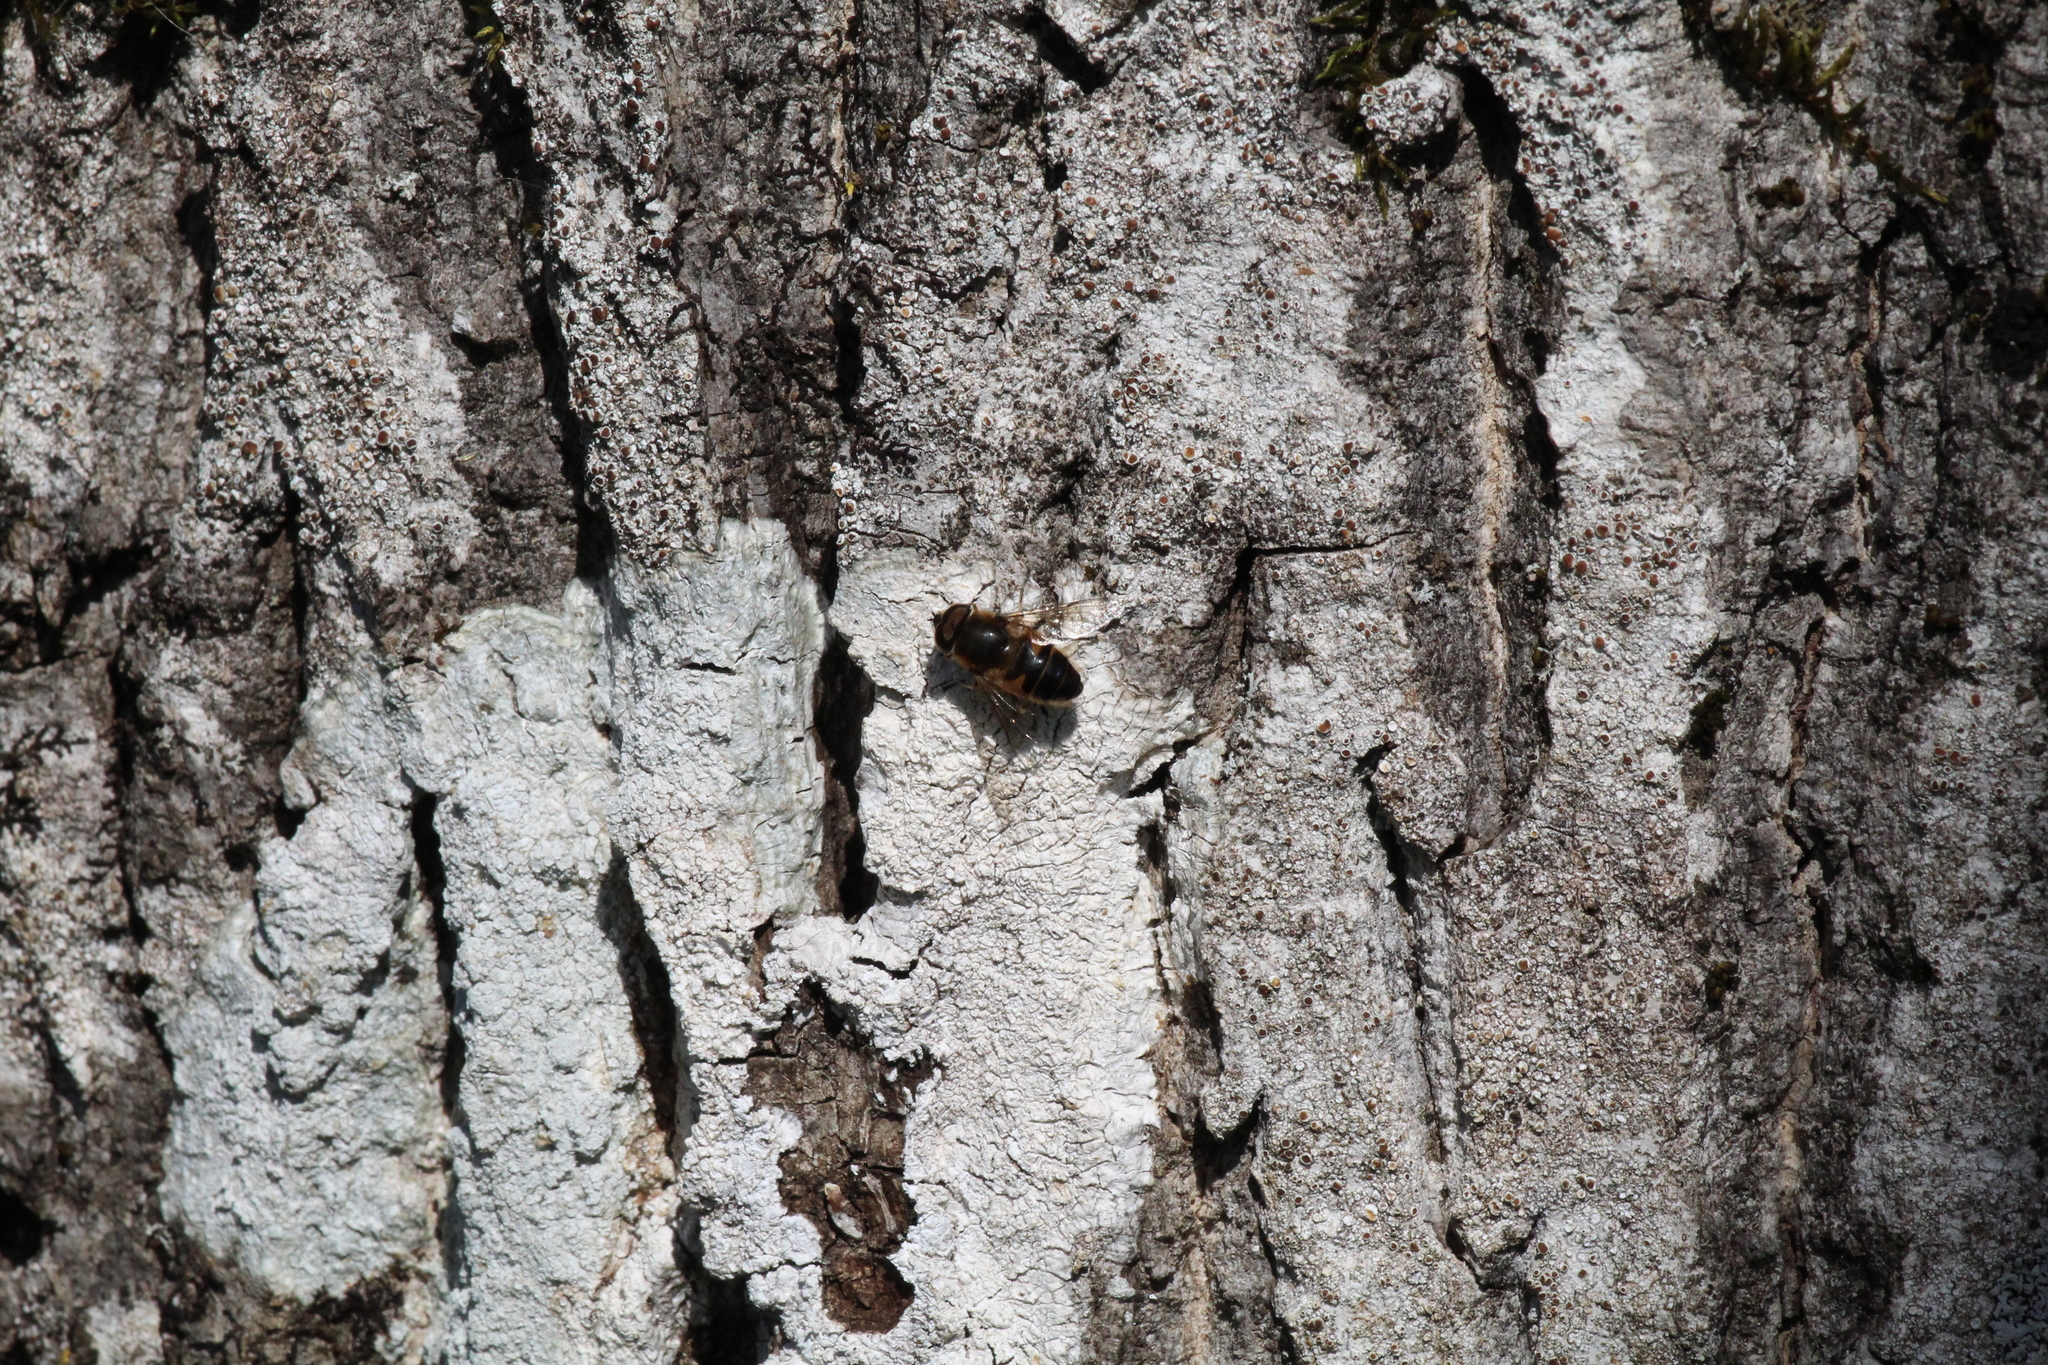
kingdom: Animalia
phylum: Arthropoda
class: Insecta
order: Diptera
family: Syrphidae
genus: Eristalis
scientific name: Eristalis pertinax
